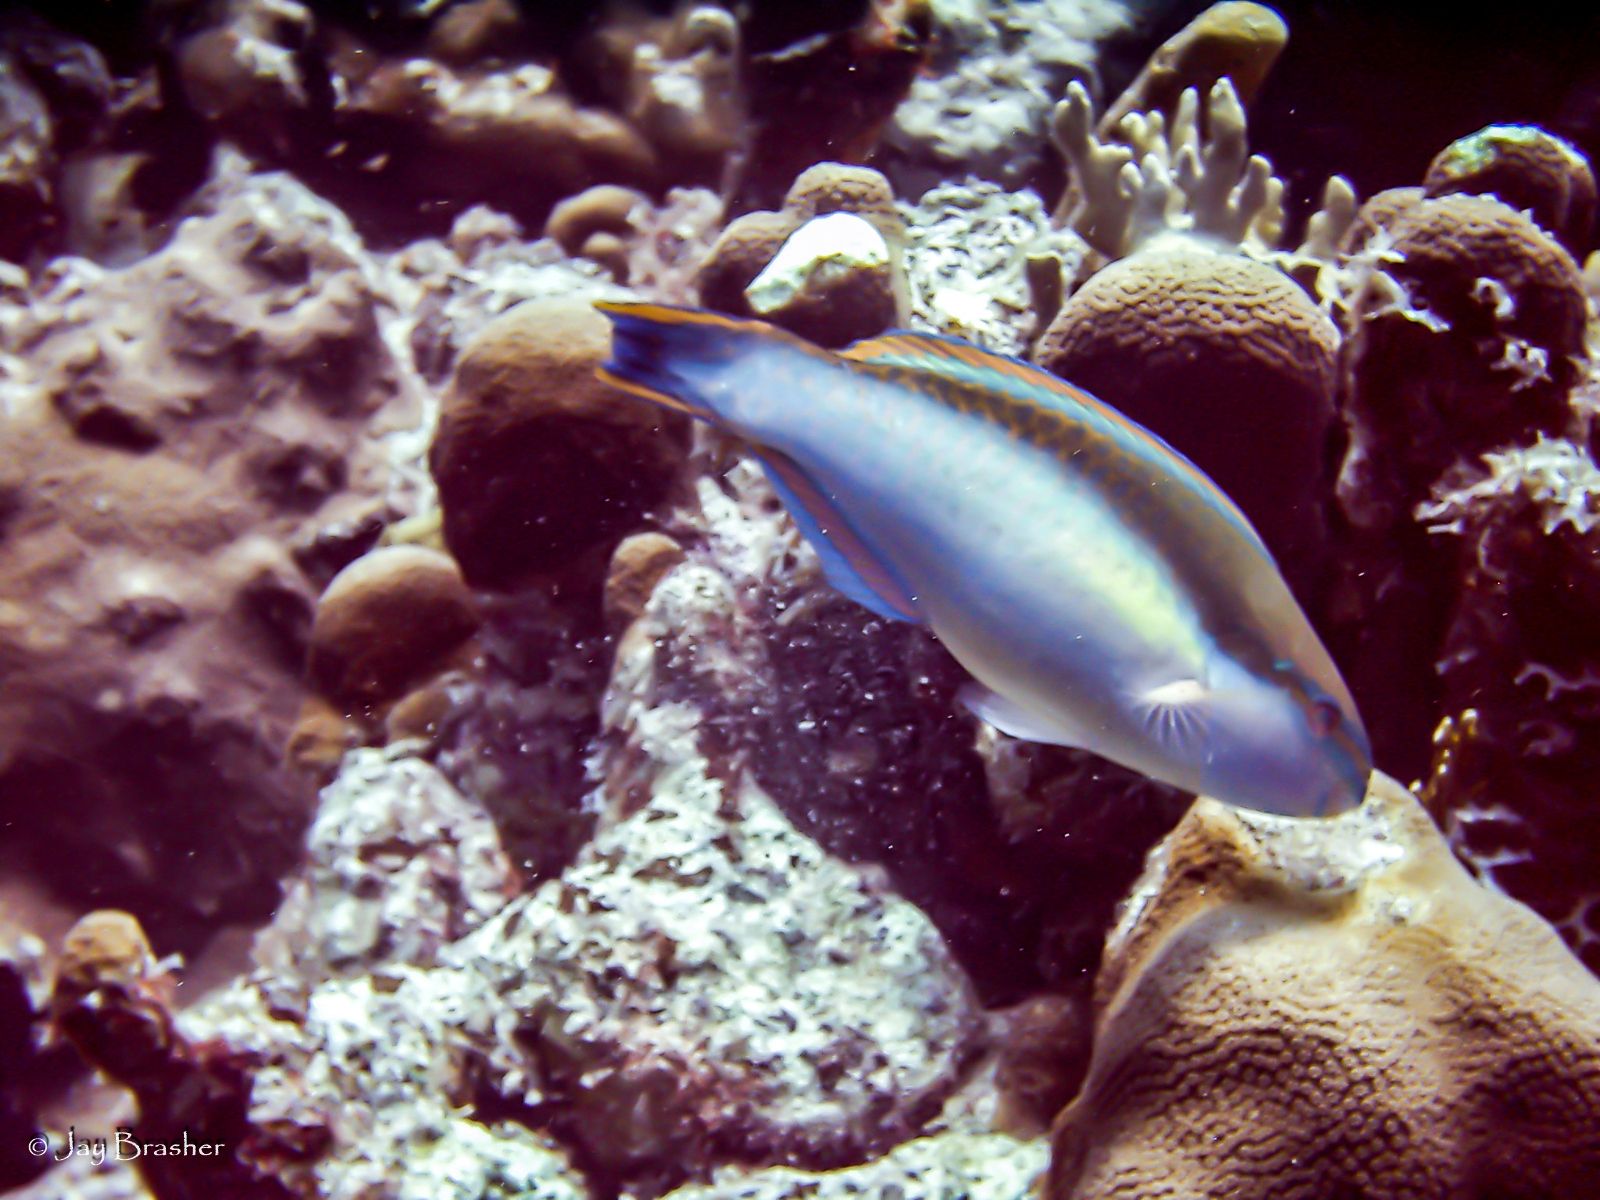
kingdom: Animalia
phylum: Chordata
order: Perciformes
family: Scaridae
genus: Scarus
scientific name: Scarus taeniopterus
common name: Princess parrotfish
